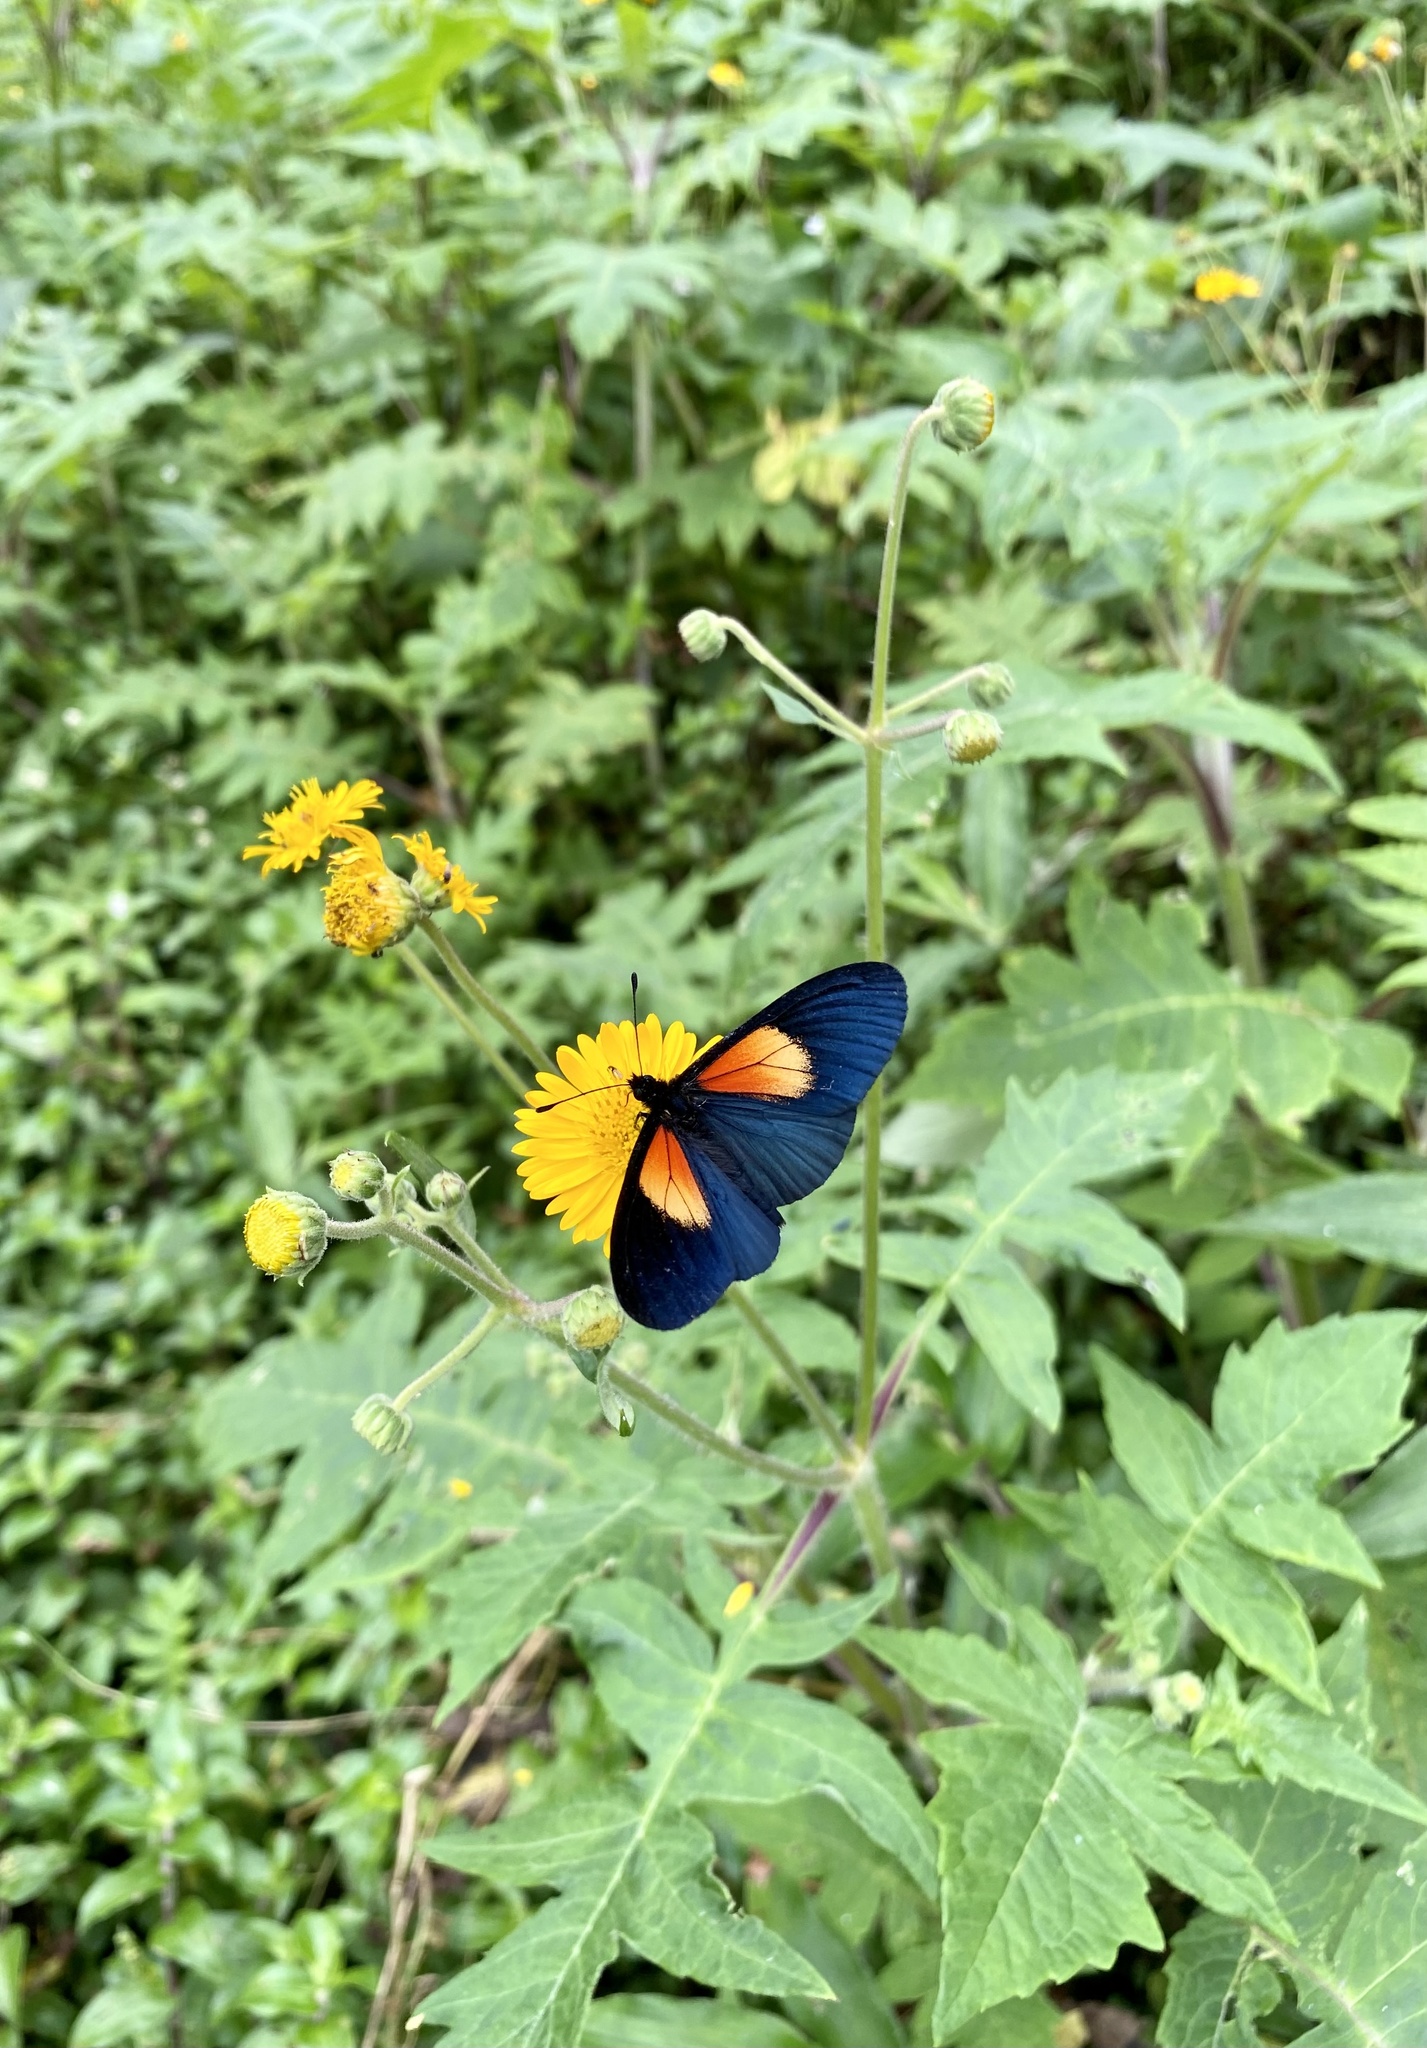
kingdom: Animalia
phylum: Arthropoda
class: Insecta
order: Lepidoptera
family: Nymphalidae
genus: Acraea
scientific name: Acraea Altinote ozomene
